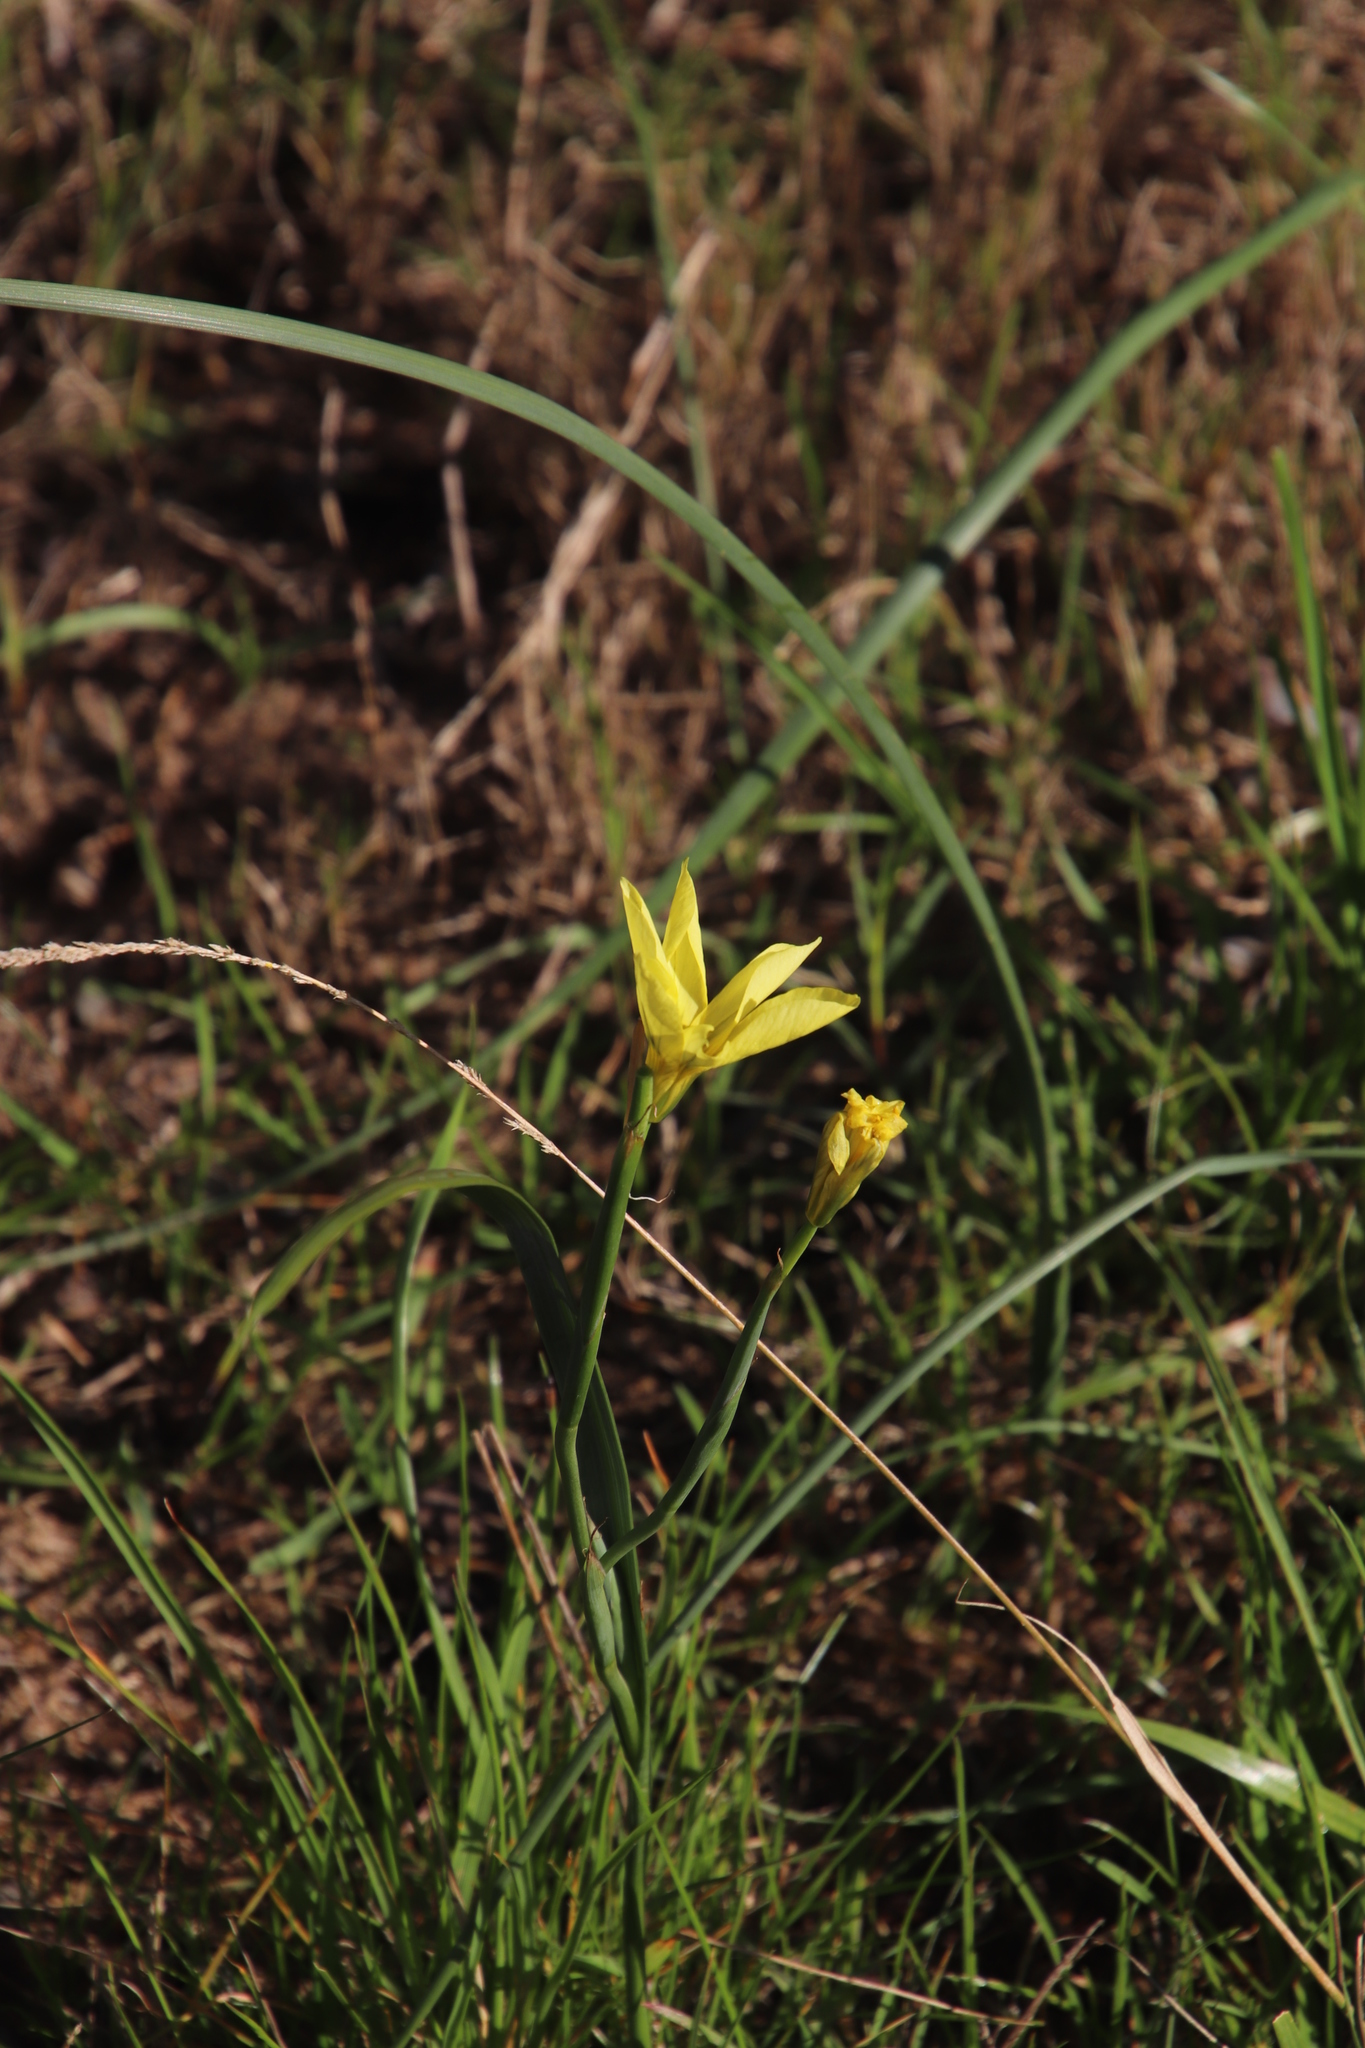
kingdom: Plantae
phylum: Tracheophyta
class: Liliopsida
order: Asparagales
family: Iridaceae
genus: Moraea
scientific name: Moraea collina
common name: Cape-tulip
